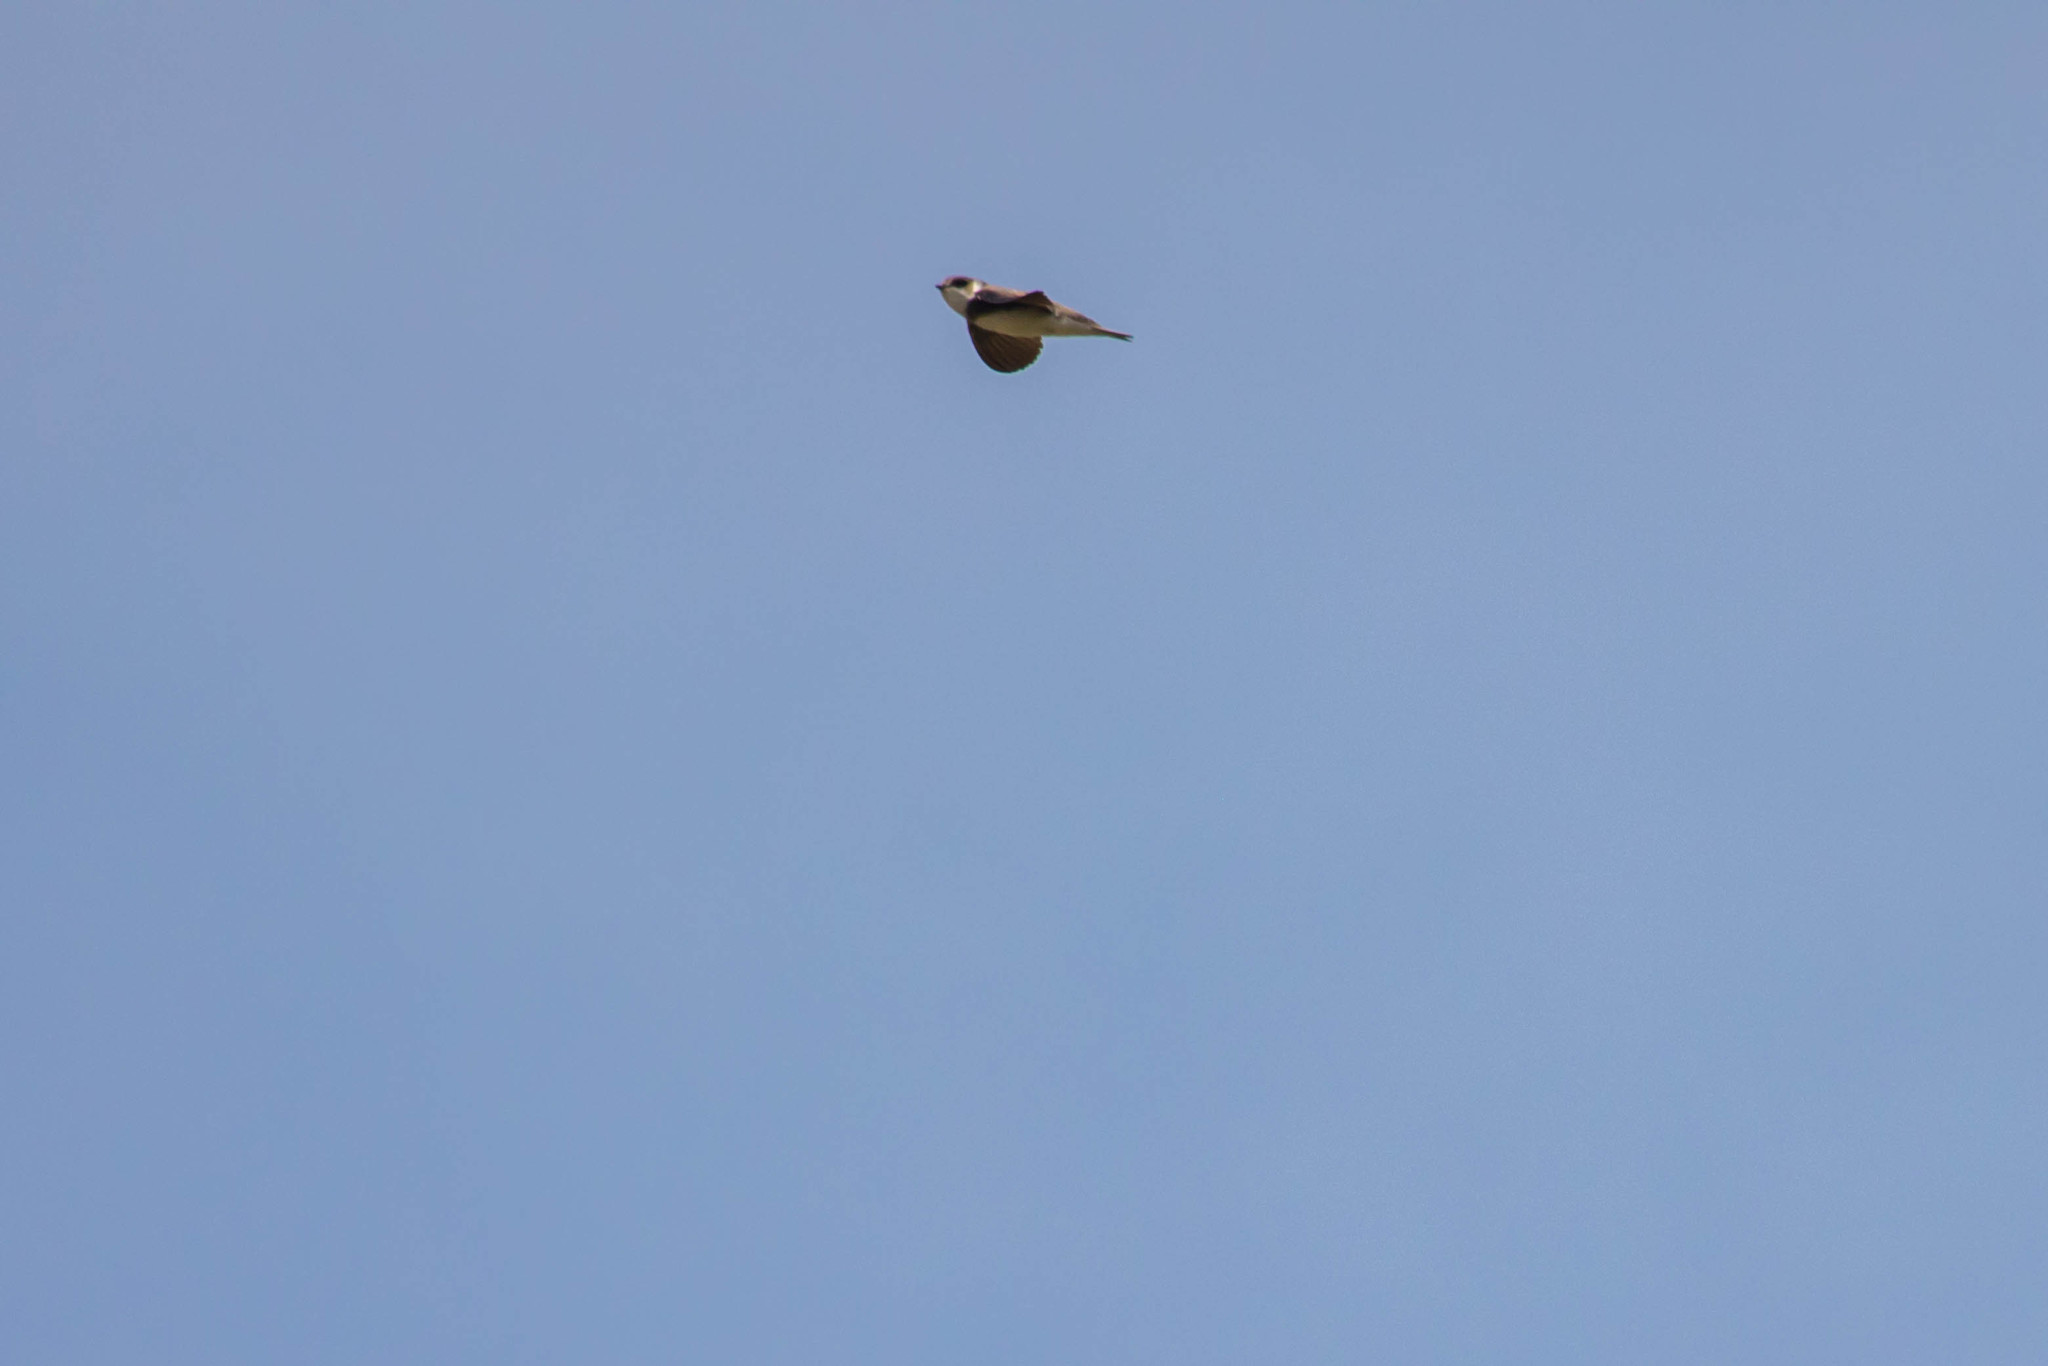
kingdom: Animalia
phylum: Chordata
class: Aves
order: Passeriformes
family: Hirundinidae
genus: Riparia
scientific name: Riparia riparia
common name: Sand martin
